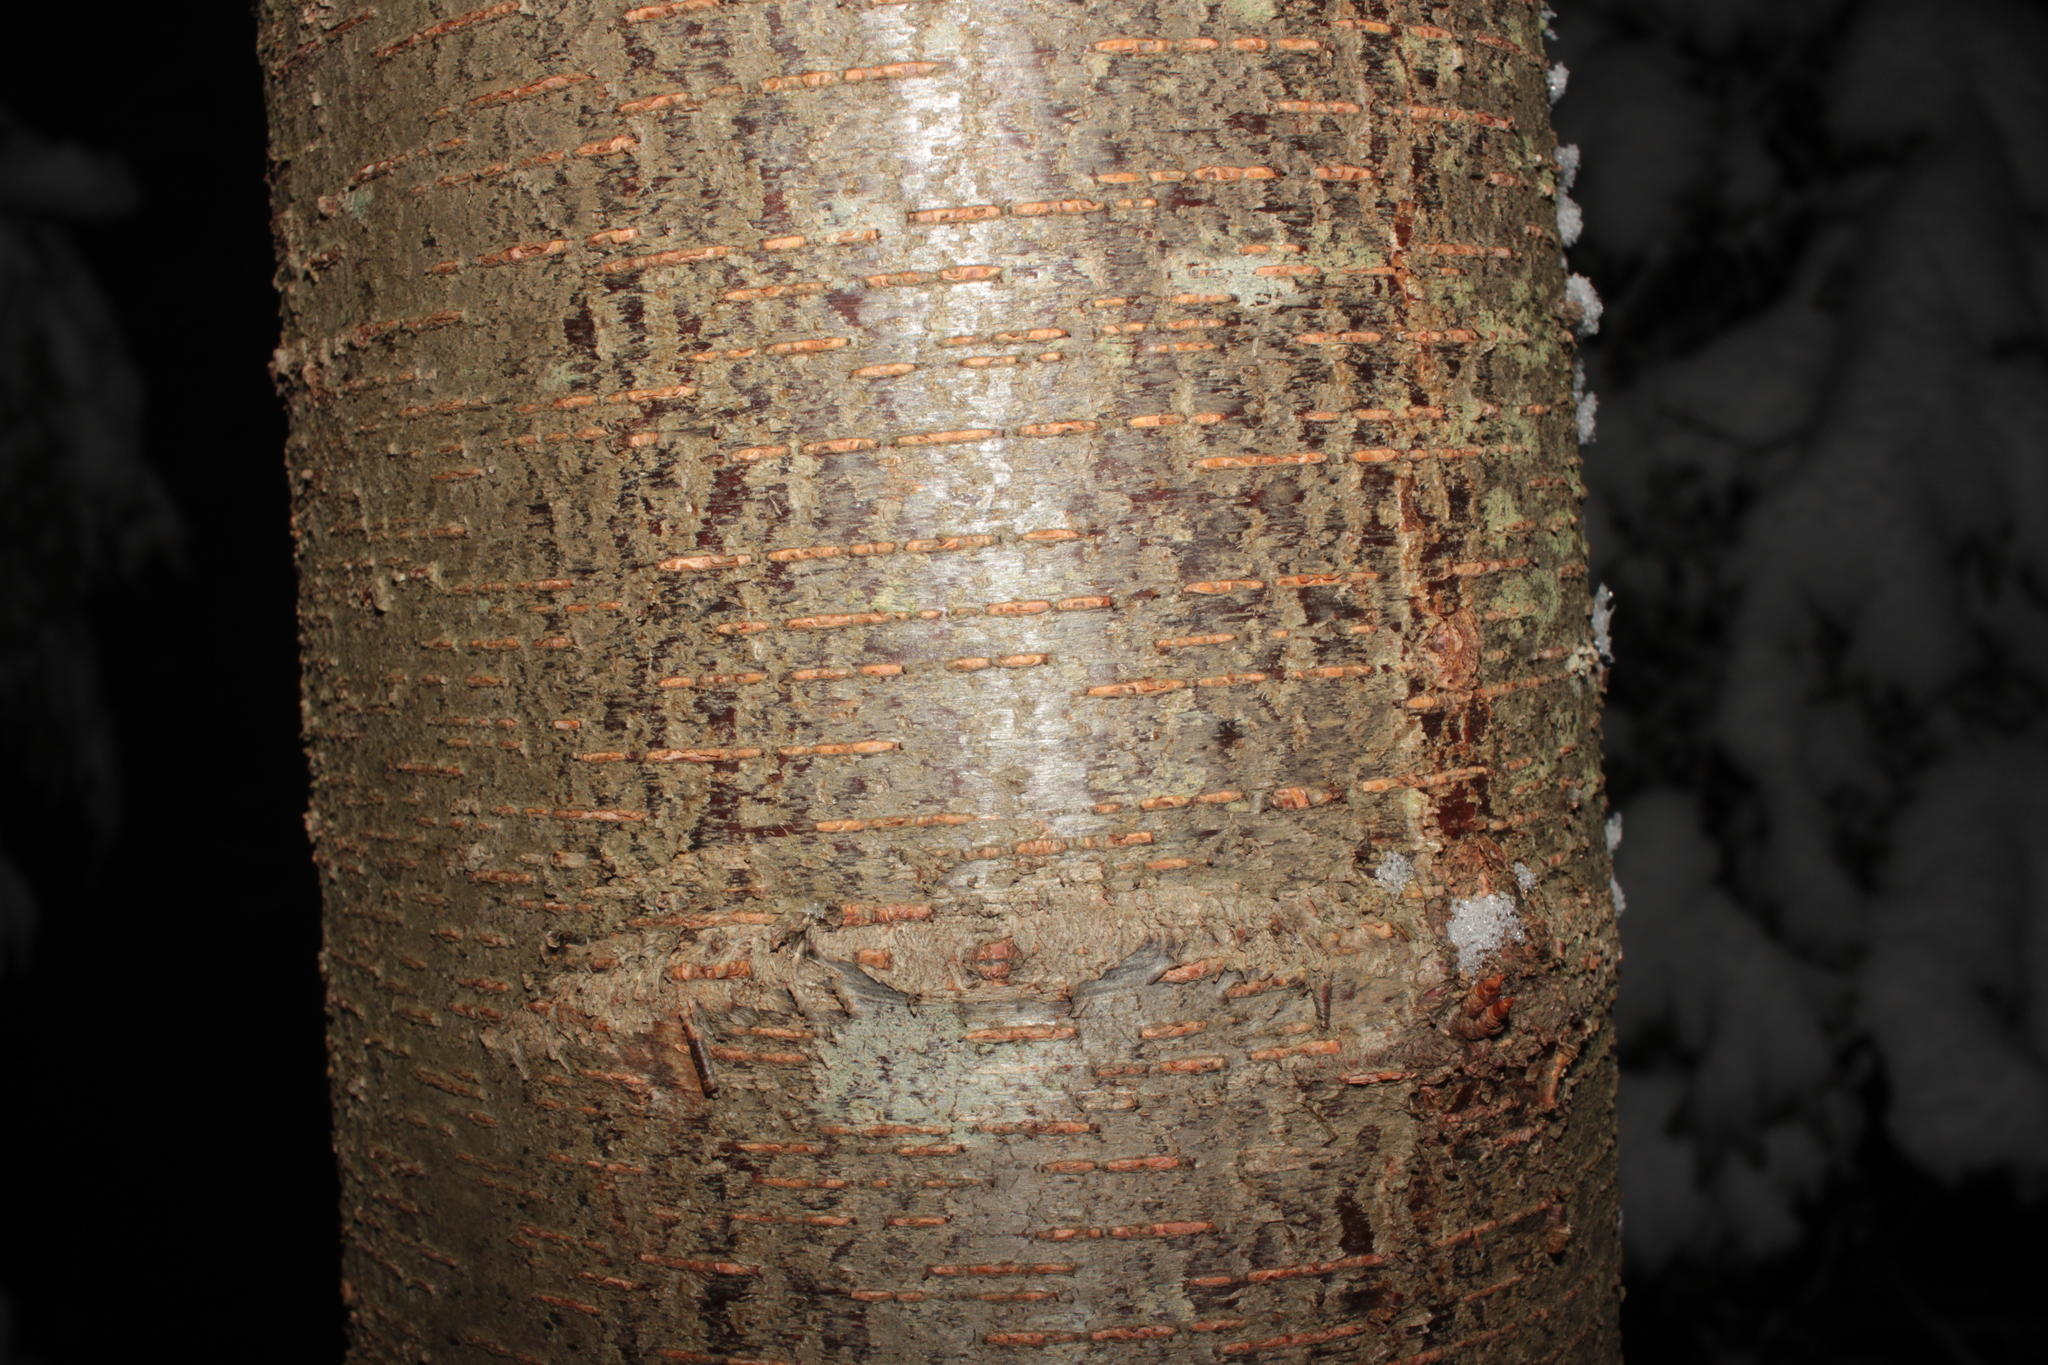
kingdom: Plantae
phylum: Tracheophyta
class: Magnoliopsida
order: Fagales
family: Betulaceae
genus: Betula
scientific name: Betula lenta
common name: Black birch
